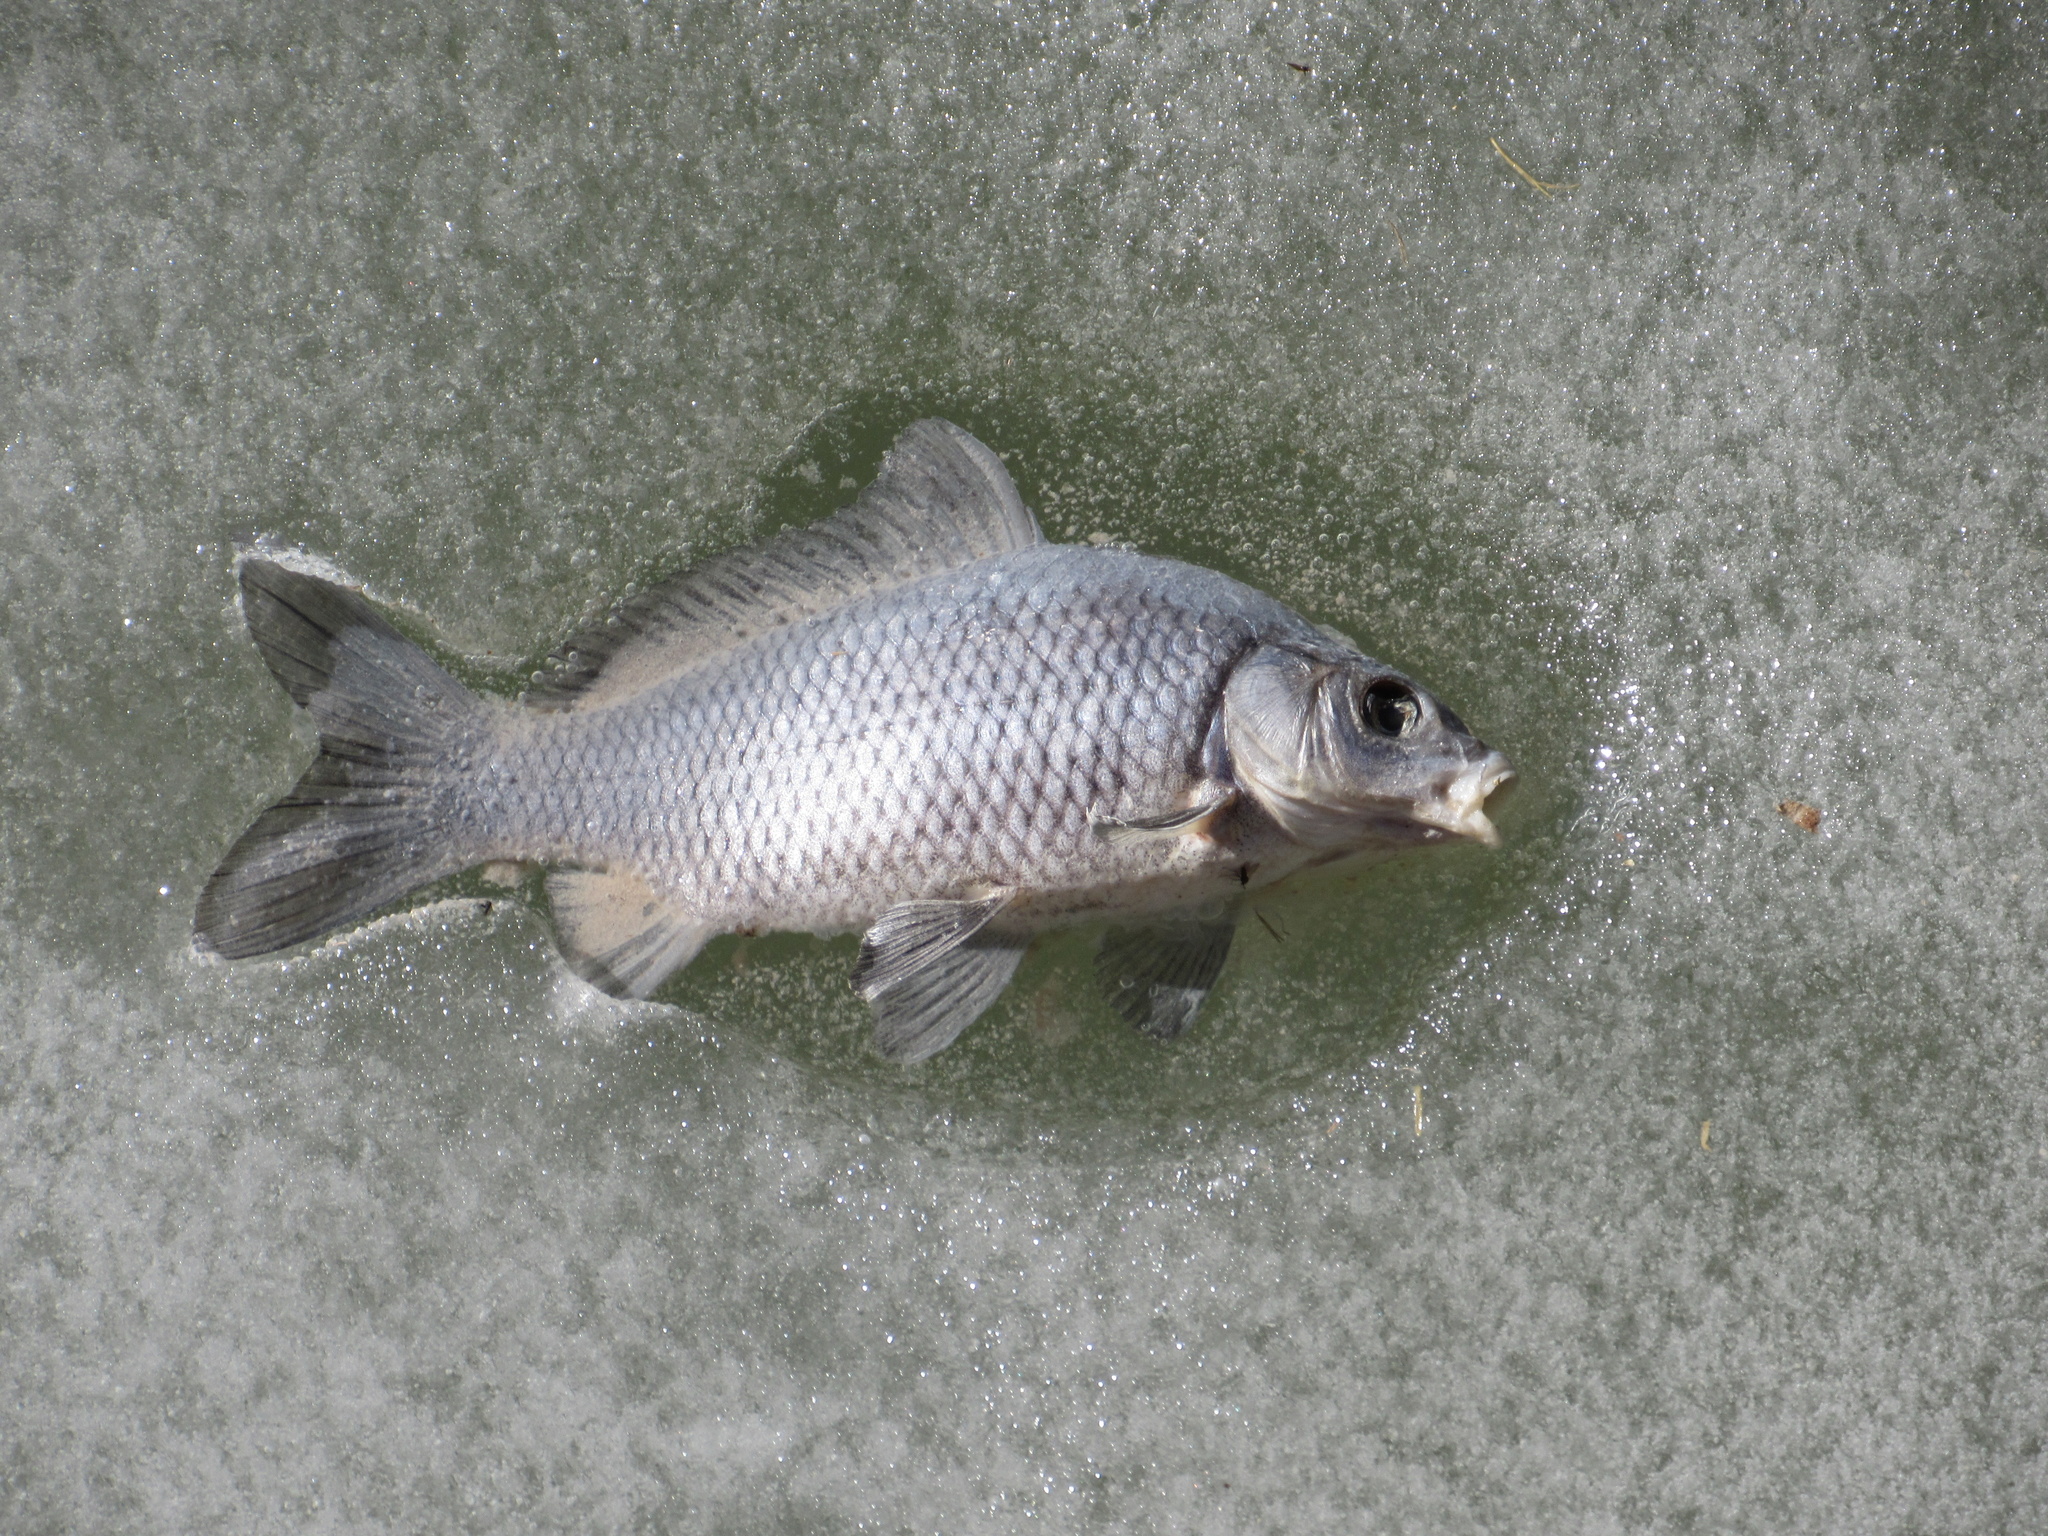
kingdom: Animalia
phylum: Chordata
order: Cypriniformes
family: Cyprinidae
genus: Cyprinus
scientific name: Cyprinus carpio
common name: Common carp
